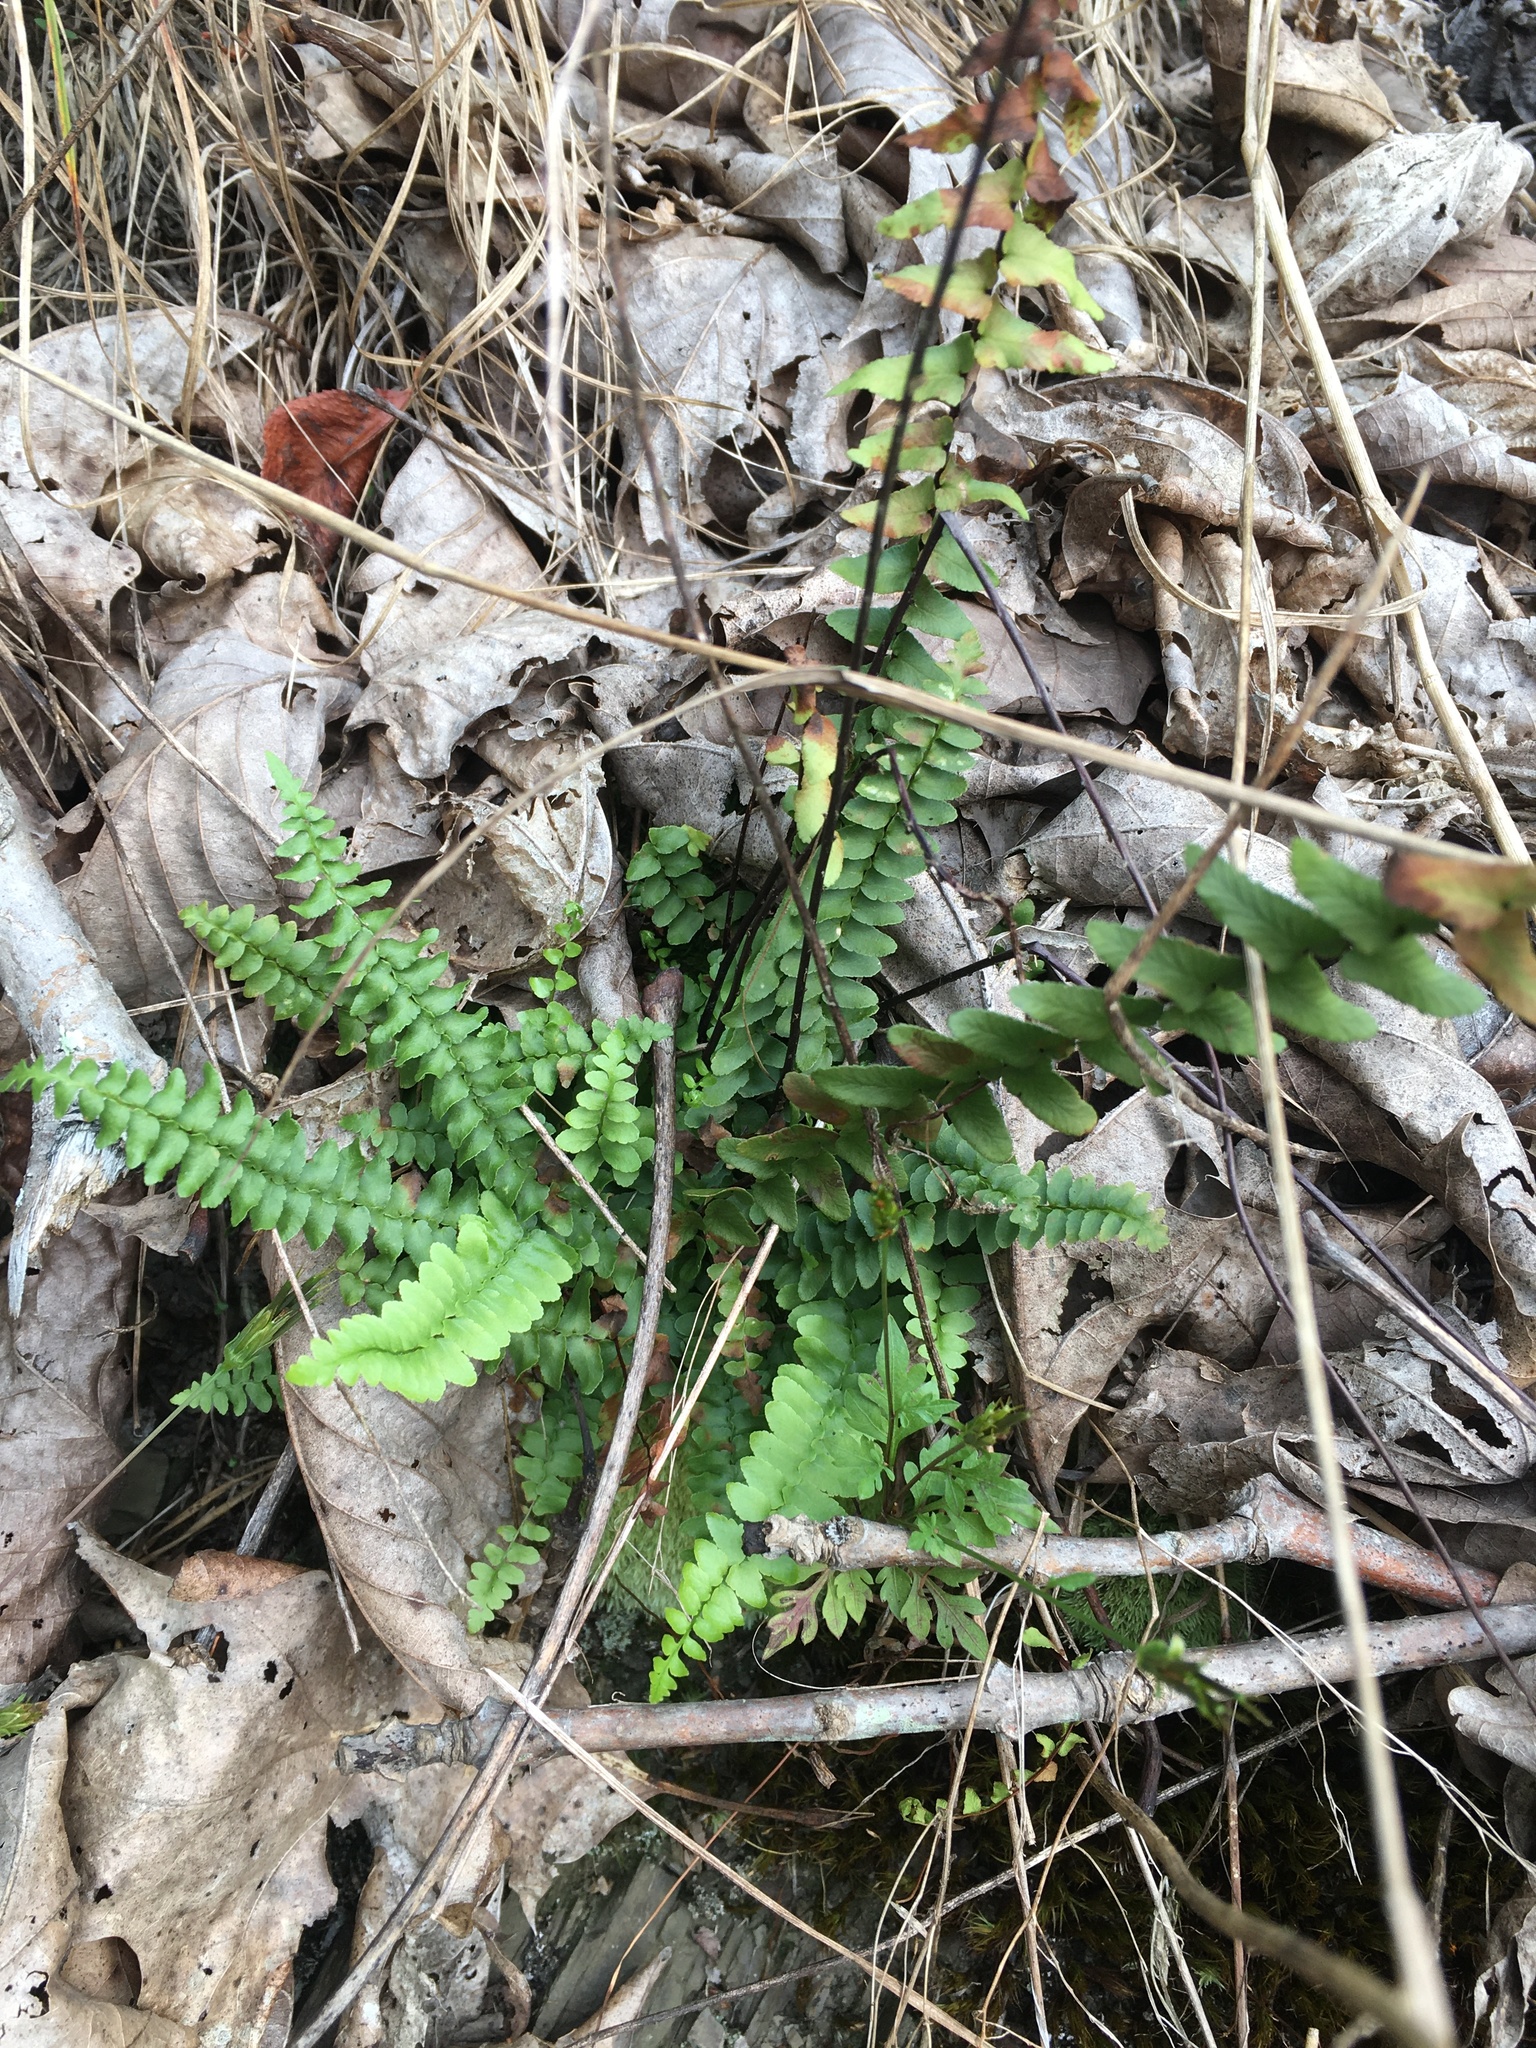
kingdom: Plantae
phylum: Tracheophyta
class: Polypodiopsida
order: Polypodiales
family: Aspleniaceae
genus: Asplenium
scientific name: Asplenium platyneuron
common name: Ebony spleenwort
